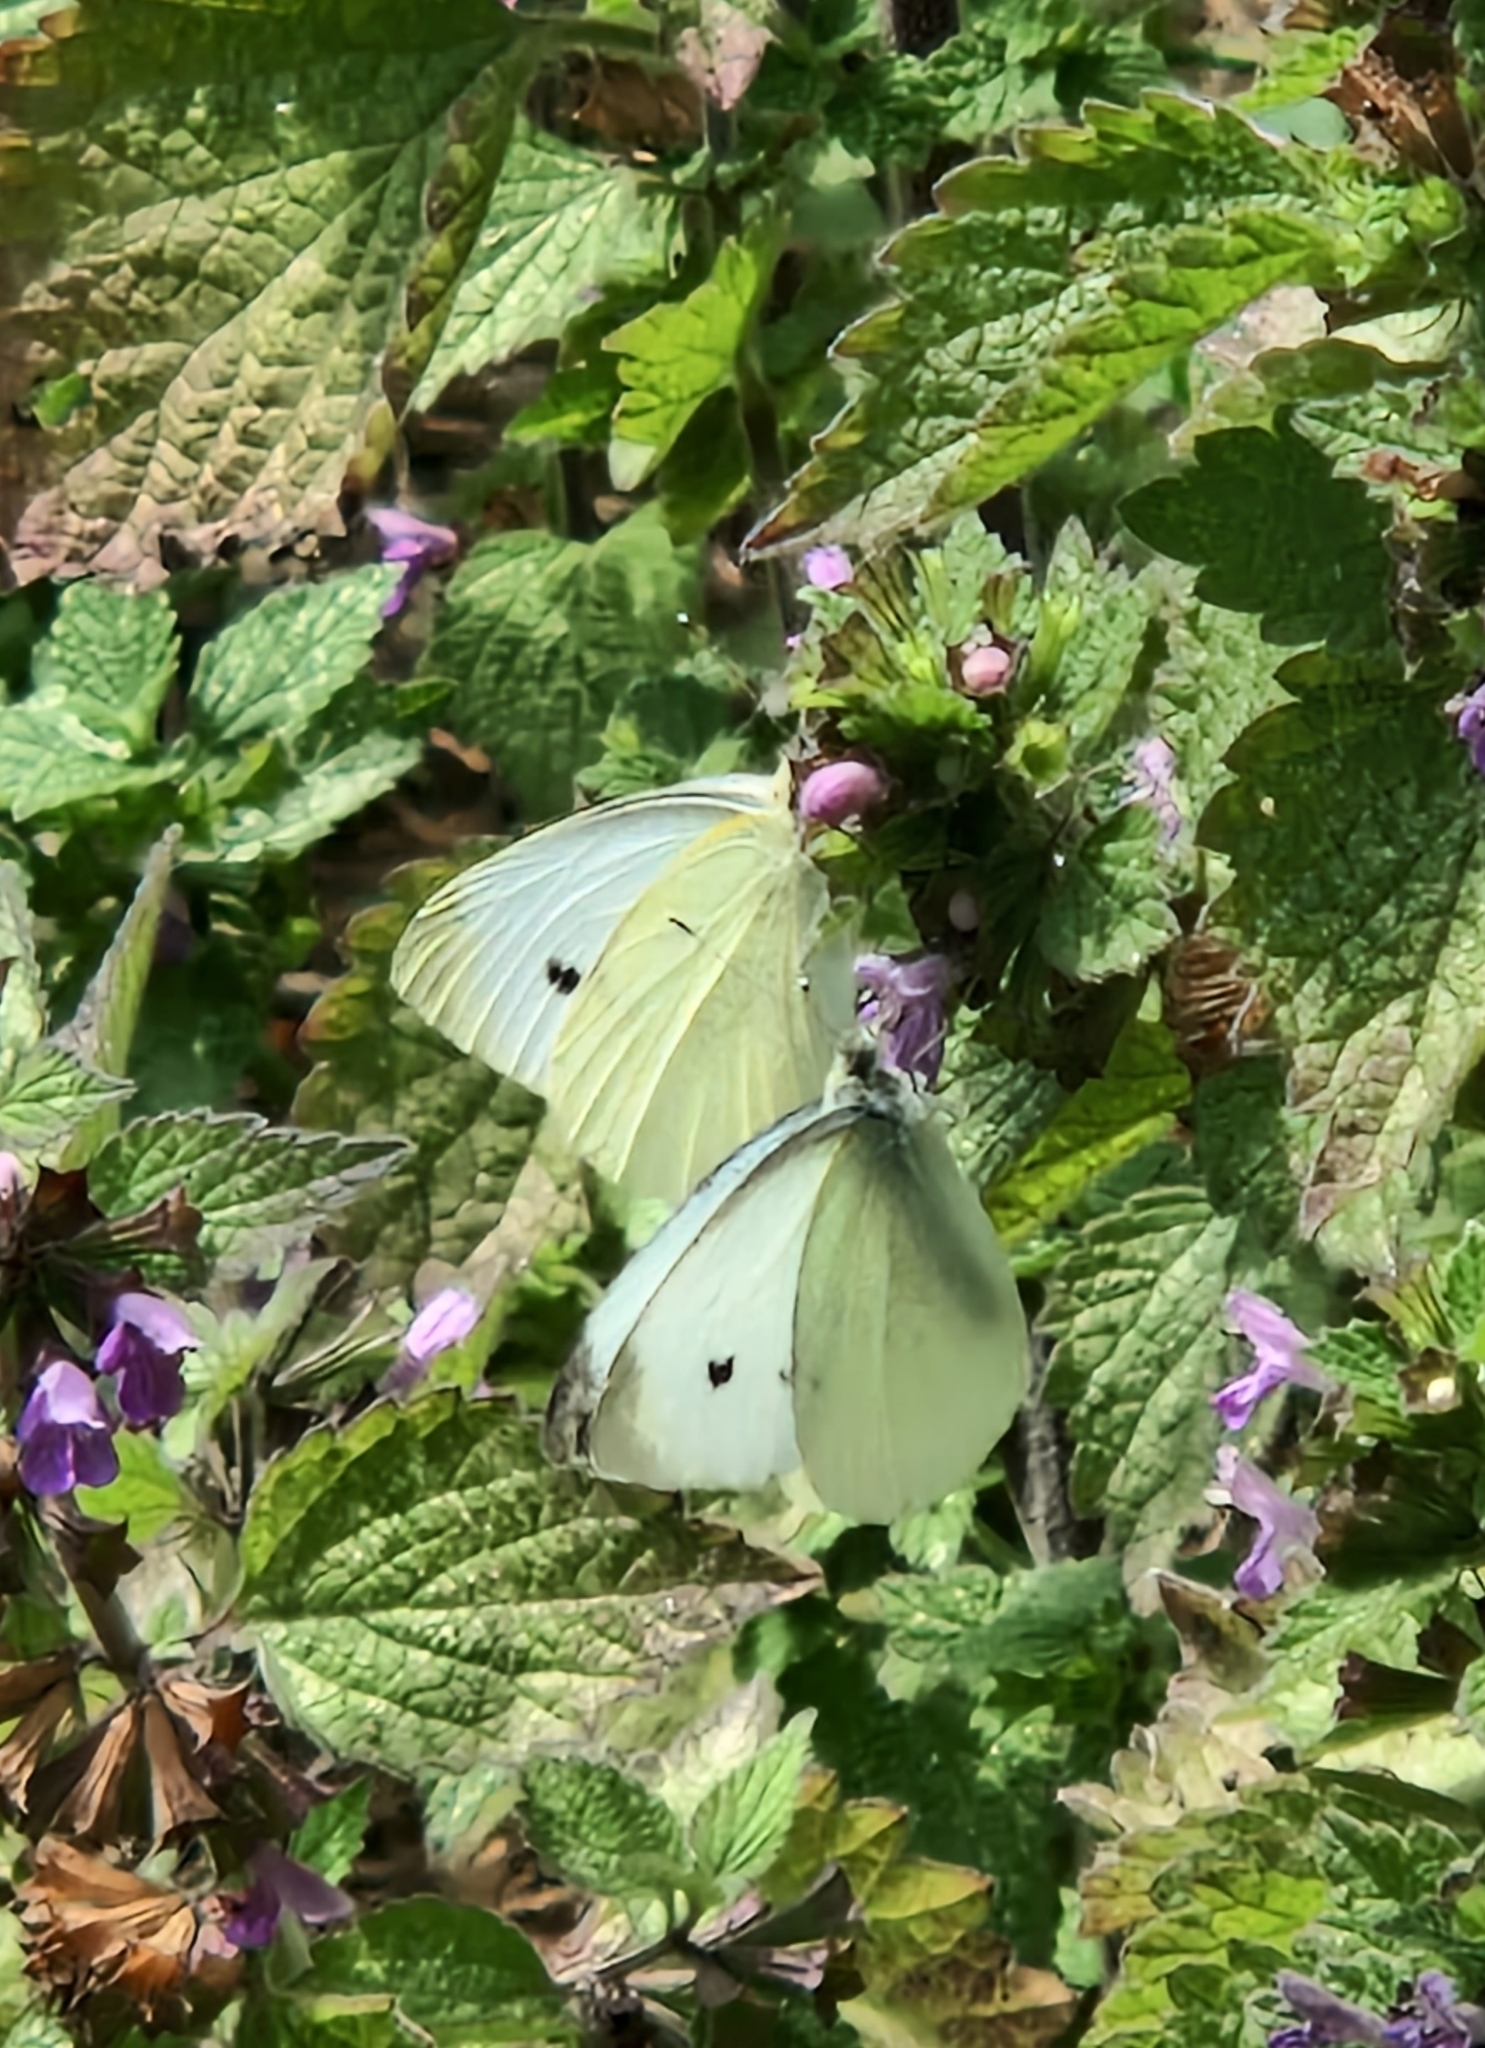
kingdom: Animalia
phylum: Arthropoda
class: Insecta
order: Lepidoptera
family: Pieridae
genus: Pieris
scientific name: Pieris rapae
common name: Small white
